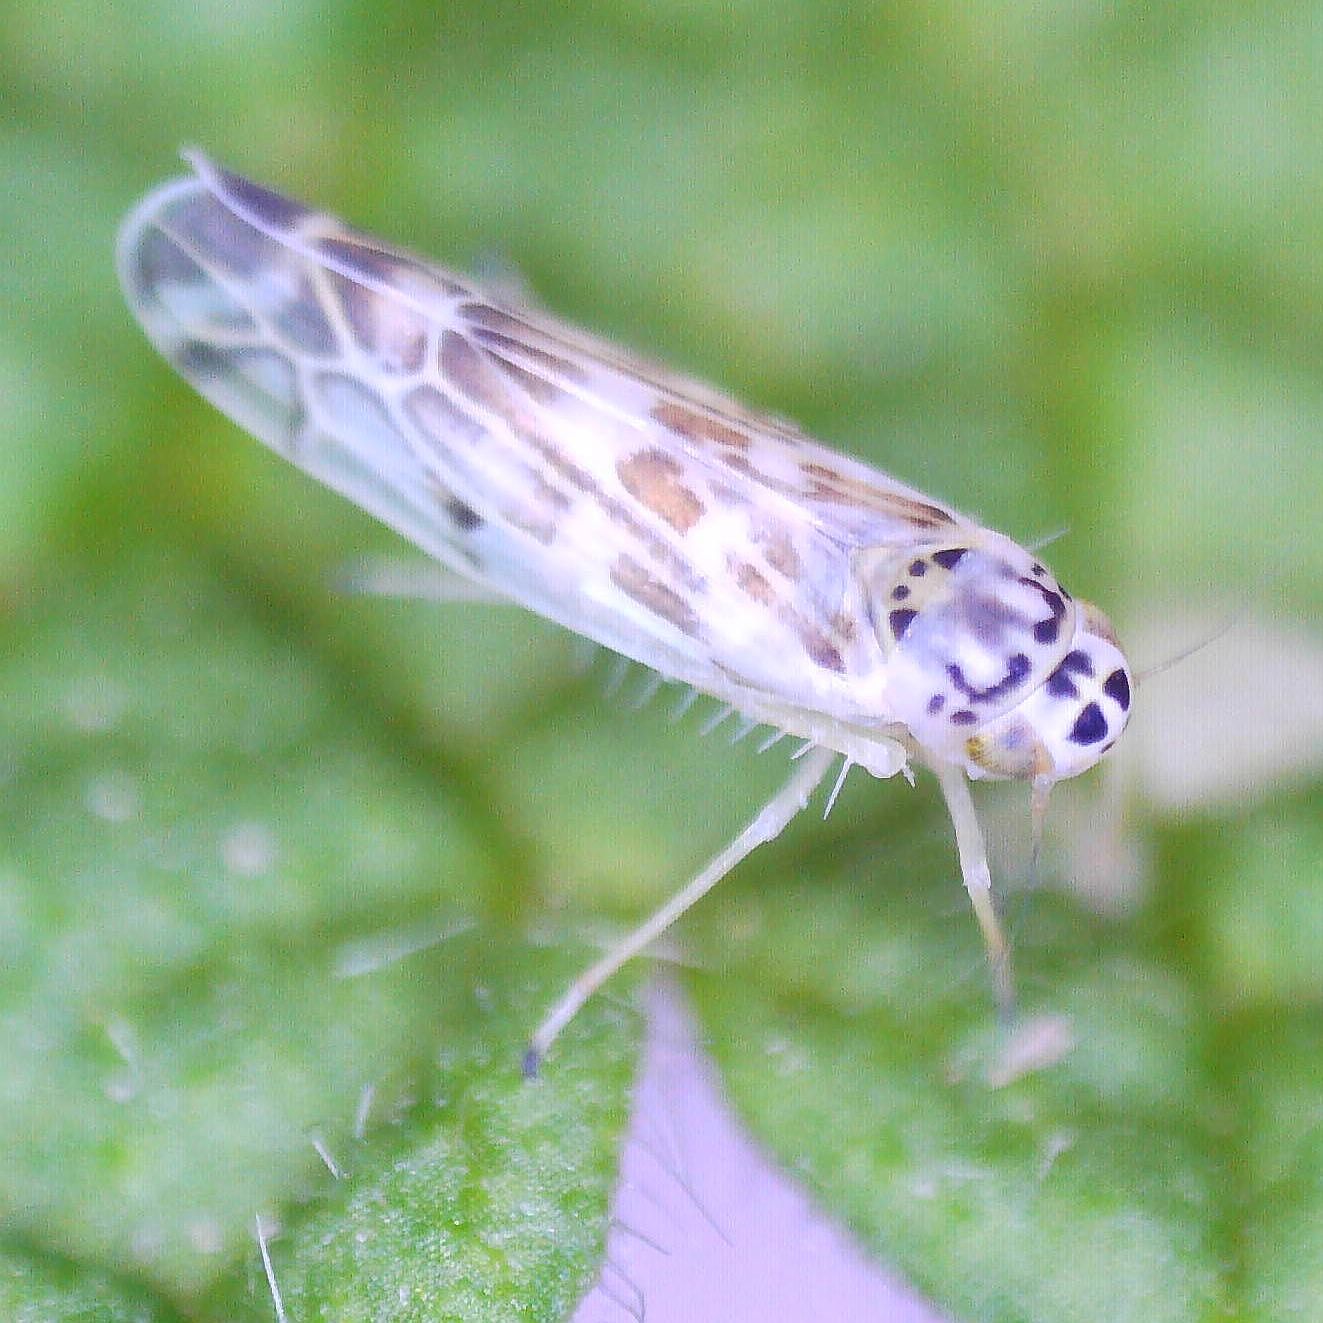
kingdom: Animalia
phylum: Arthropoda
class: Insecta
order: Hemiptera
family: Cicadellidae
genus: Eupteryx
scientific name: Eupteryx melissae
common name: Herb leafhopper
